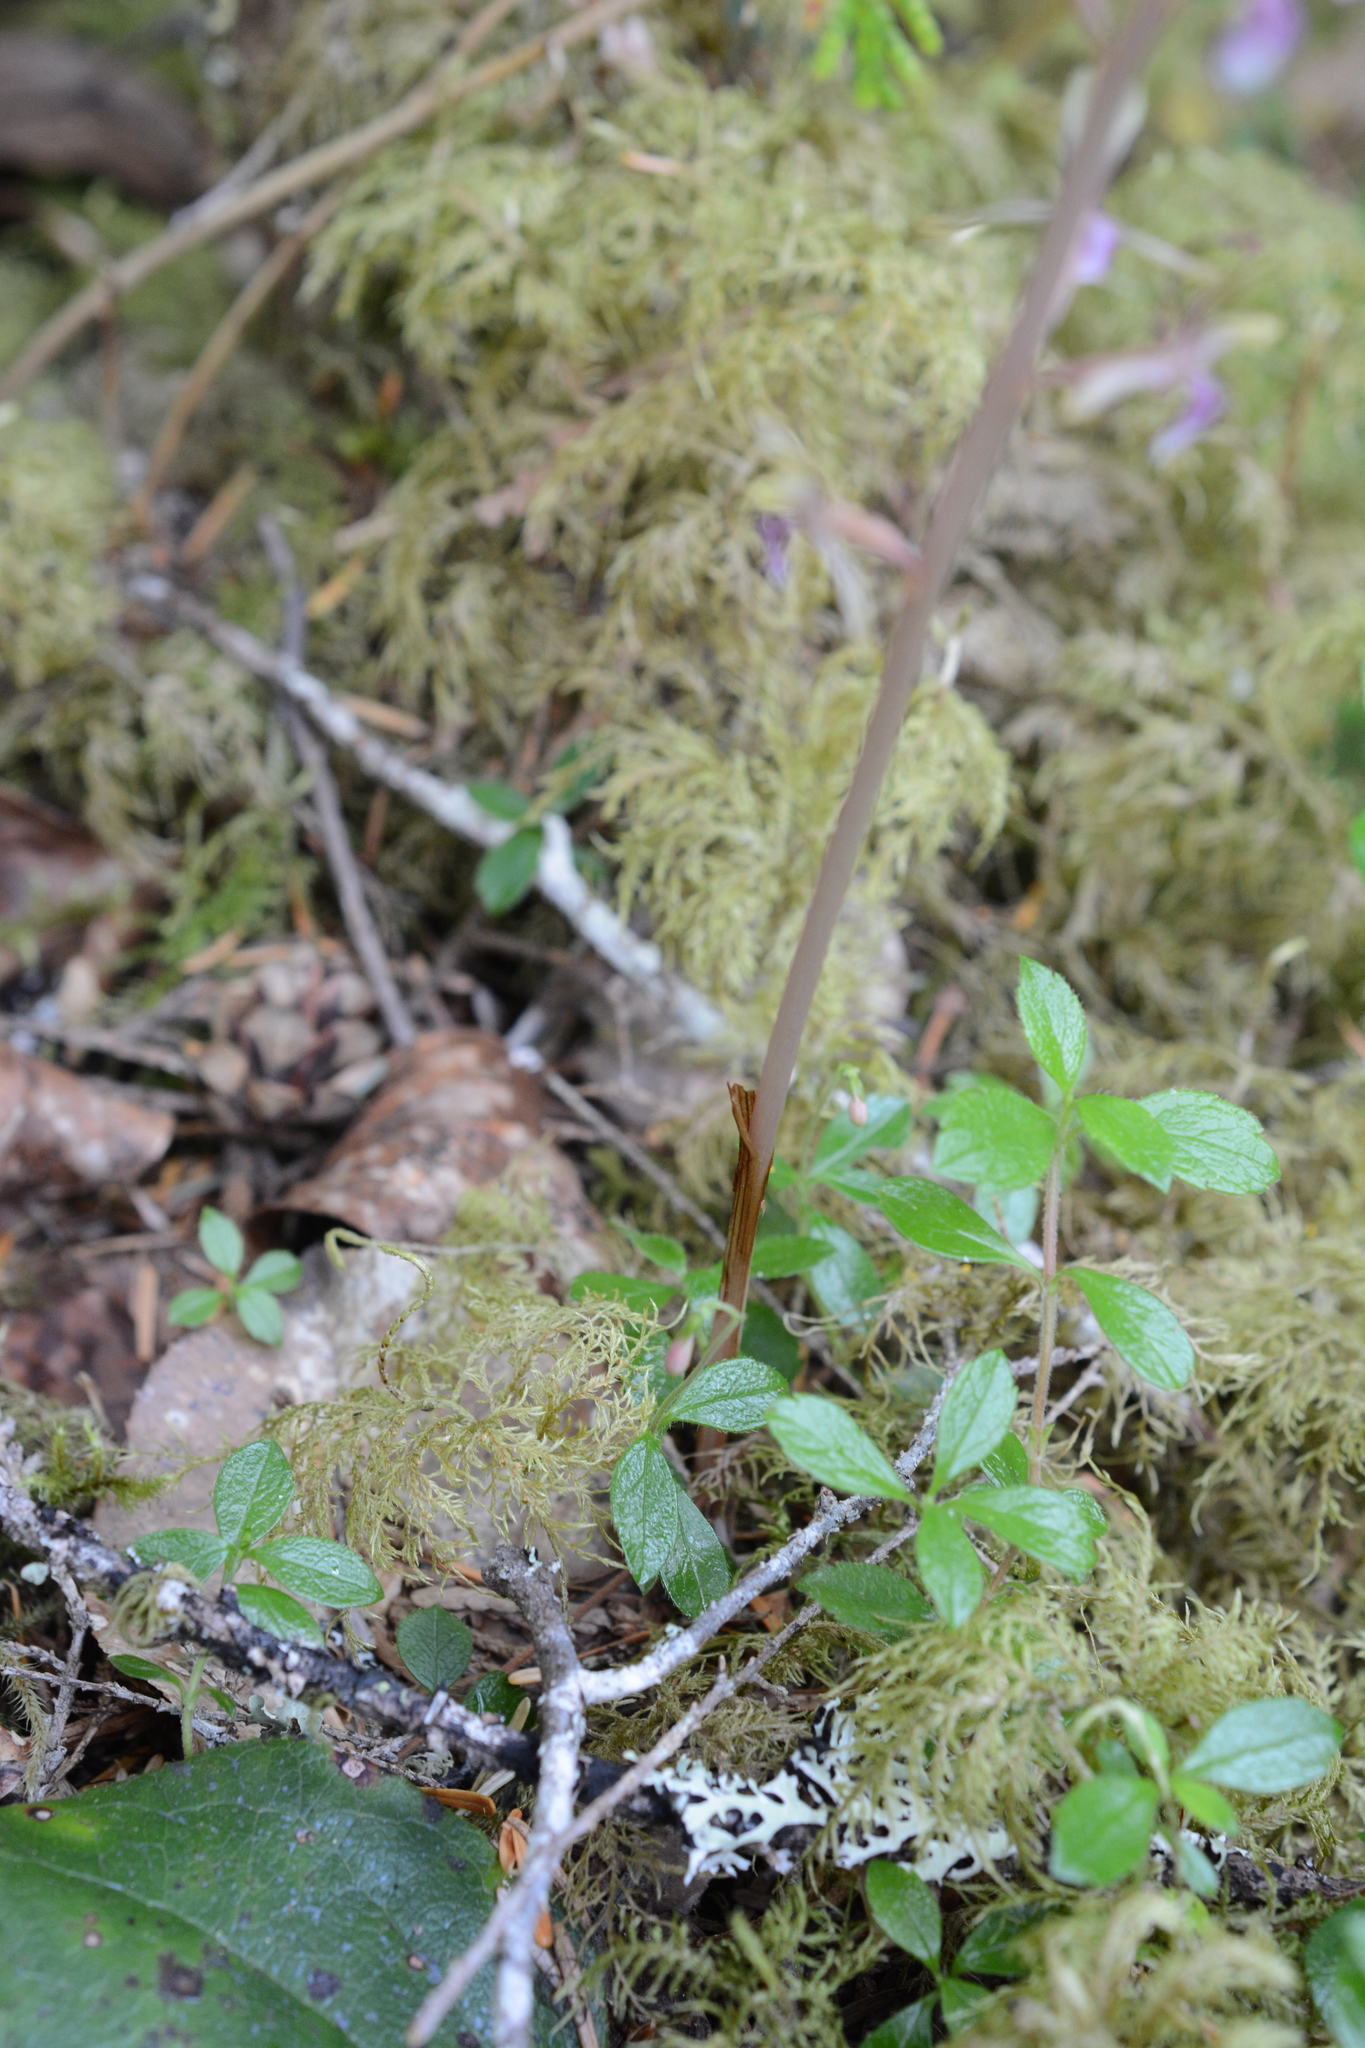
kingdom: Plantae
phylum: Tracheophyta
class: Liliopsida
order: Asparagales
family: Orchidaceae
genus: Corallorhiza
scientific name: Corallorhiza mertensiana
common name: Pacific coralroot
